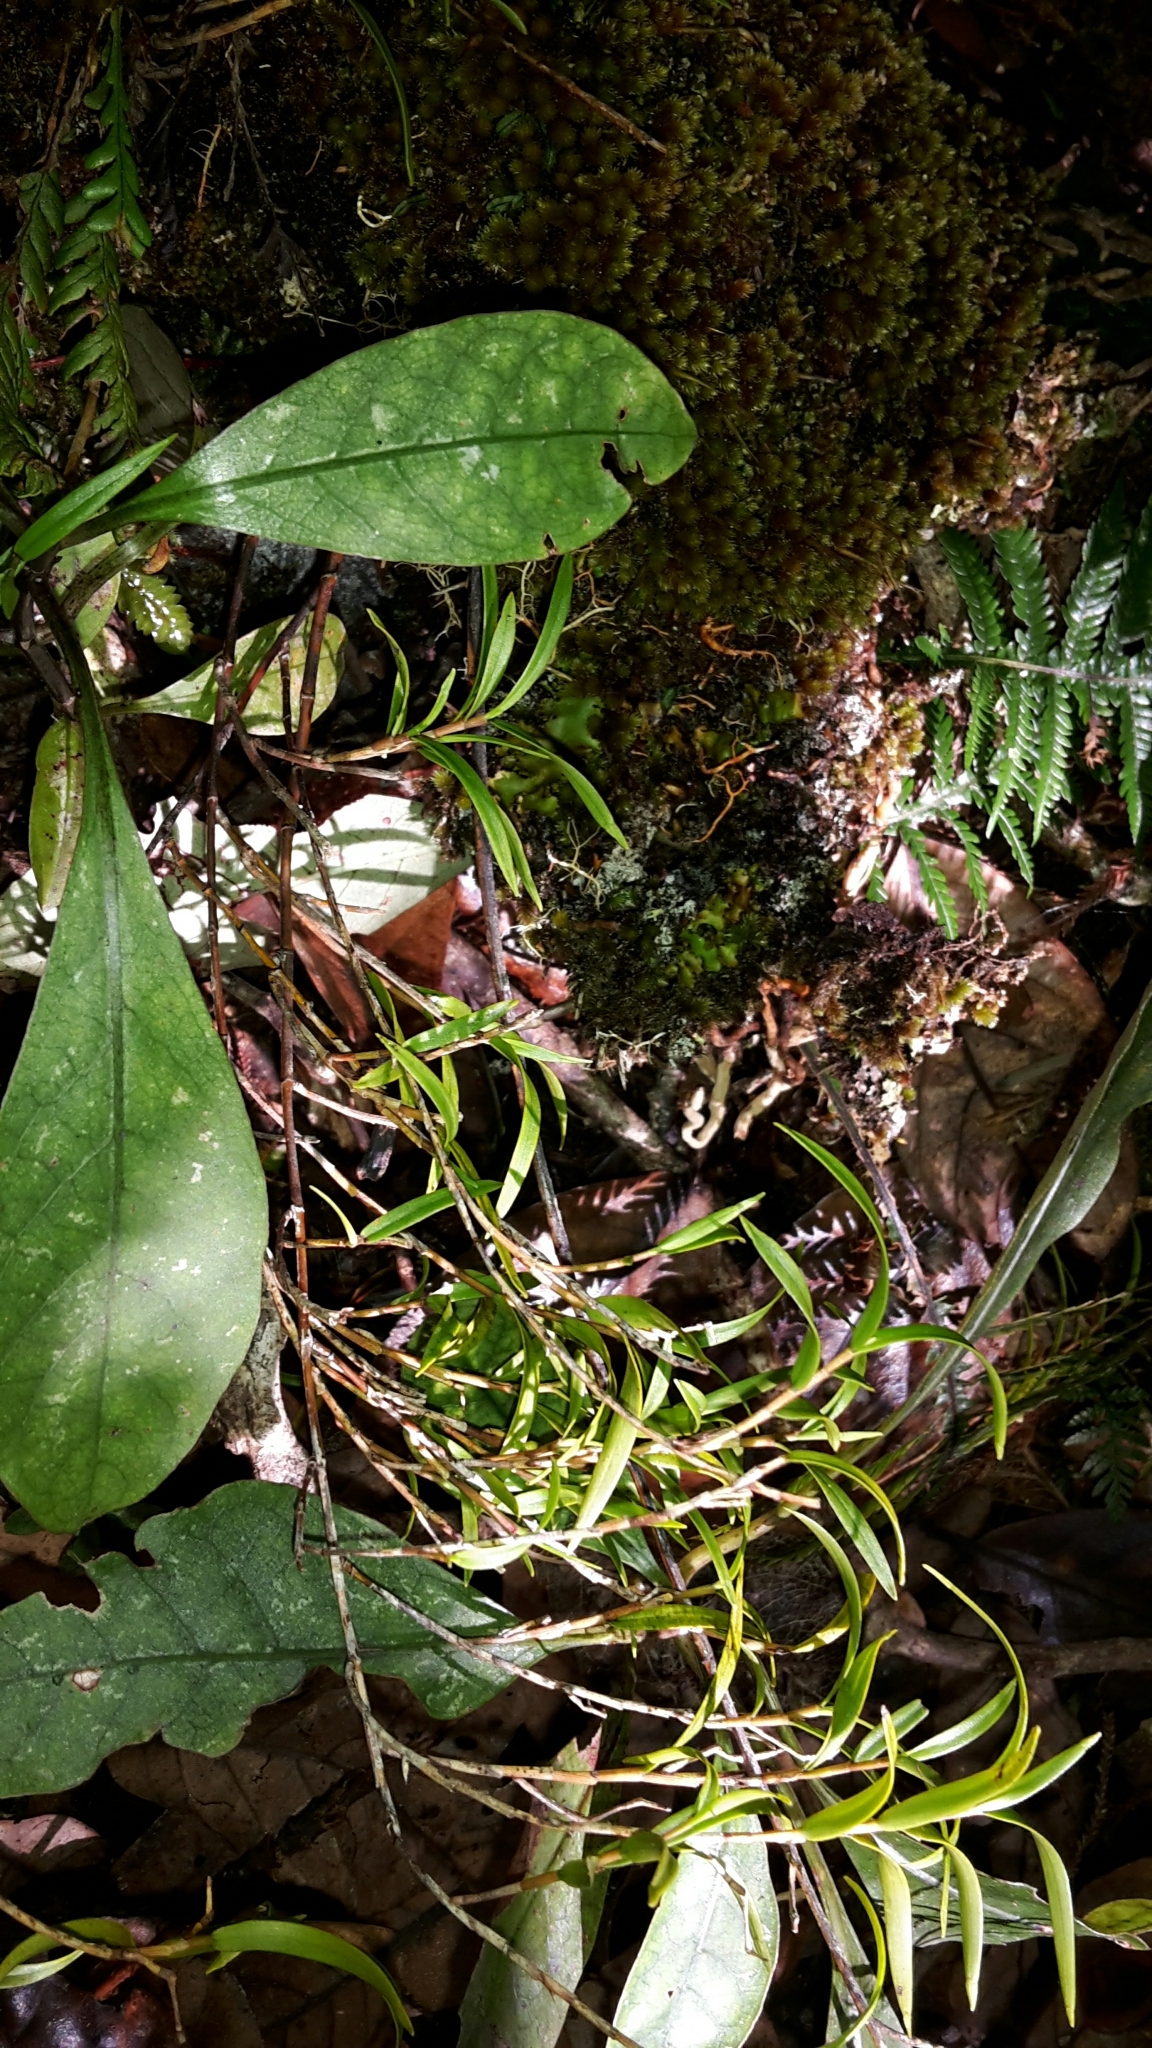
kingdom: Plantae
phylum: Tracheophyta
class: Liliopsida
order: Asparagales
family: Orchidaceae
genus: Dendrobium
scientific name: Dendrobium cunninghamii
